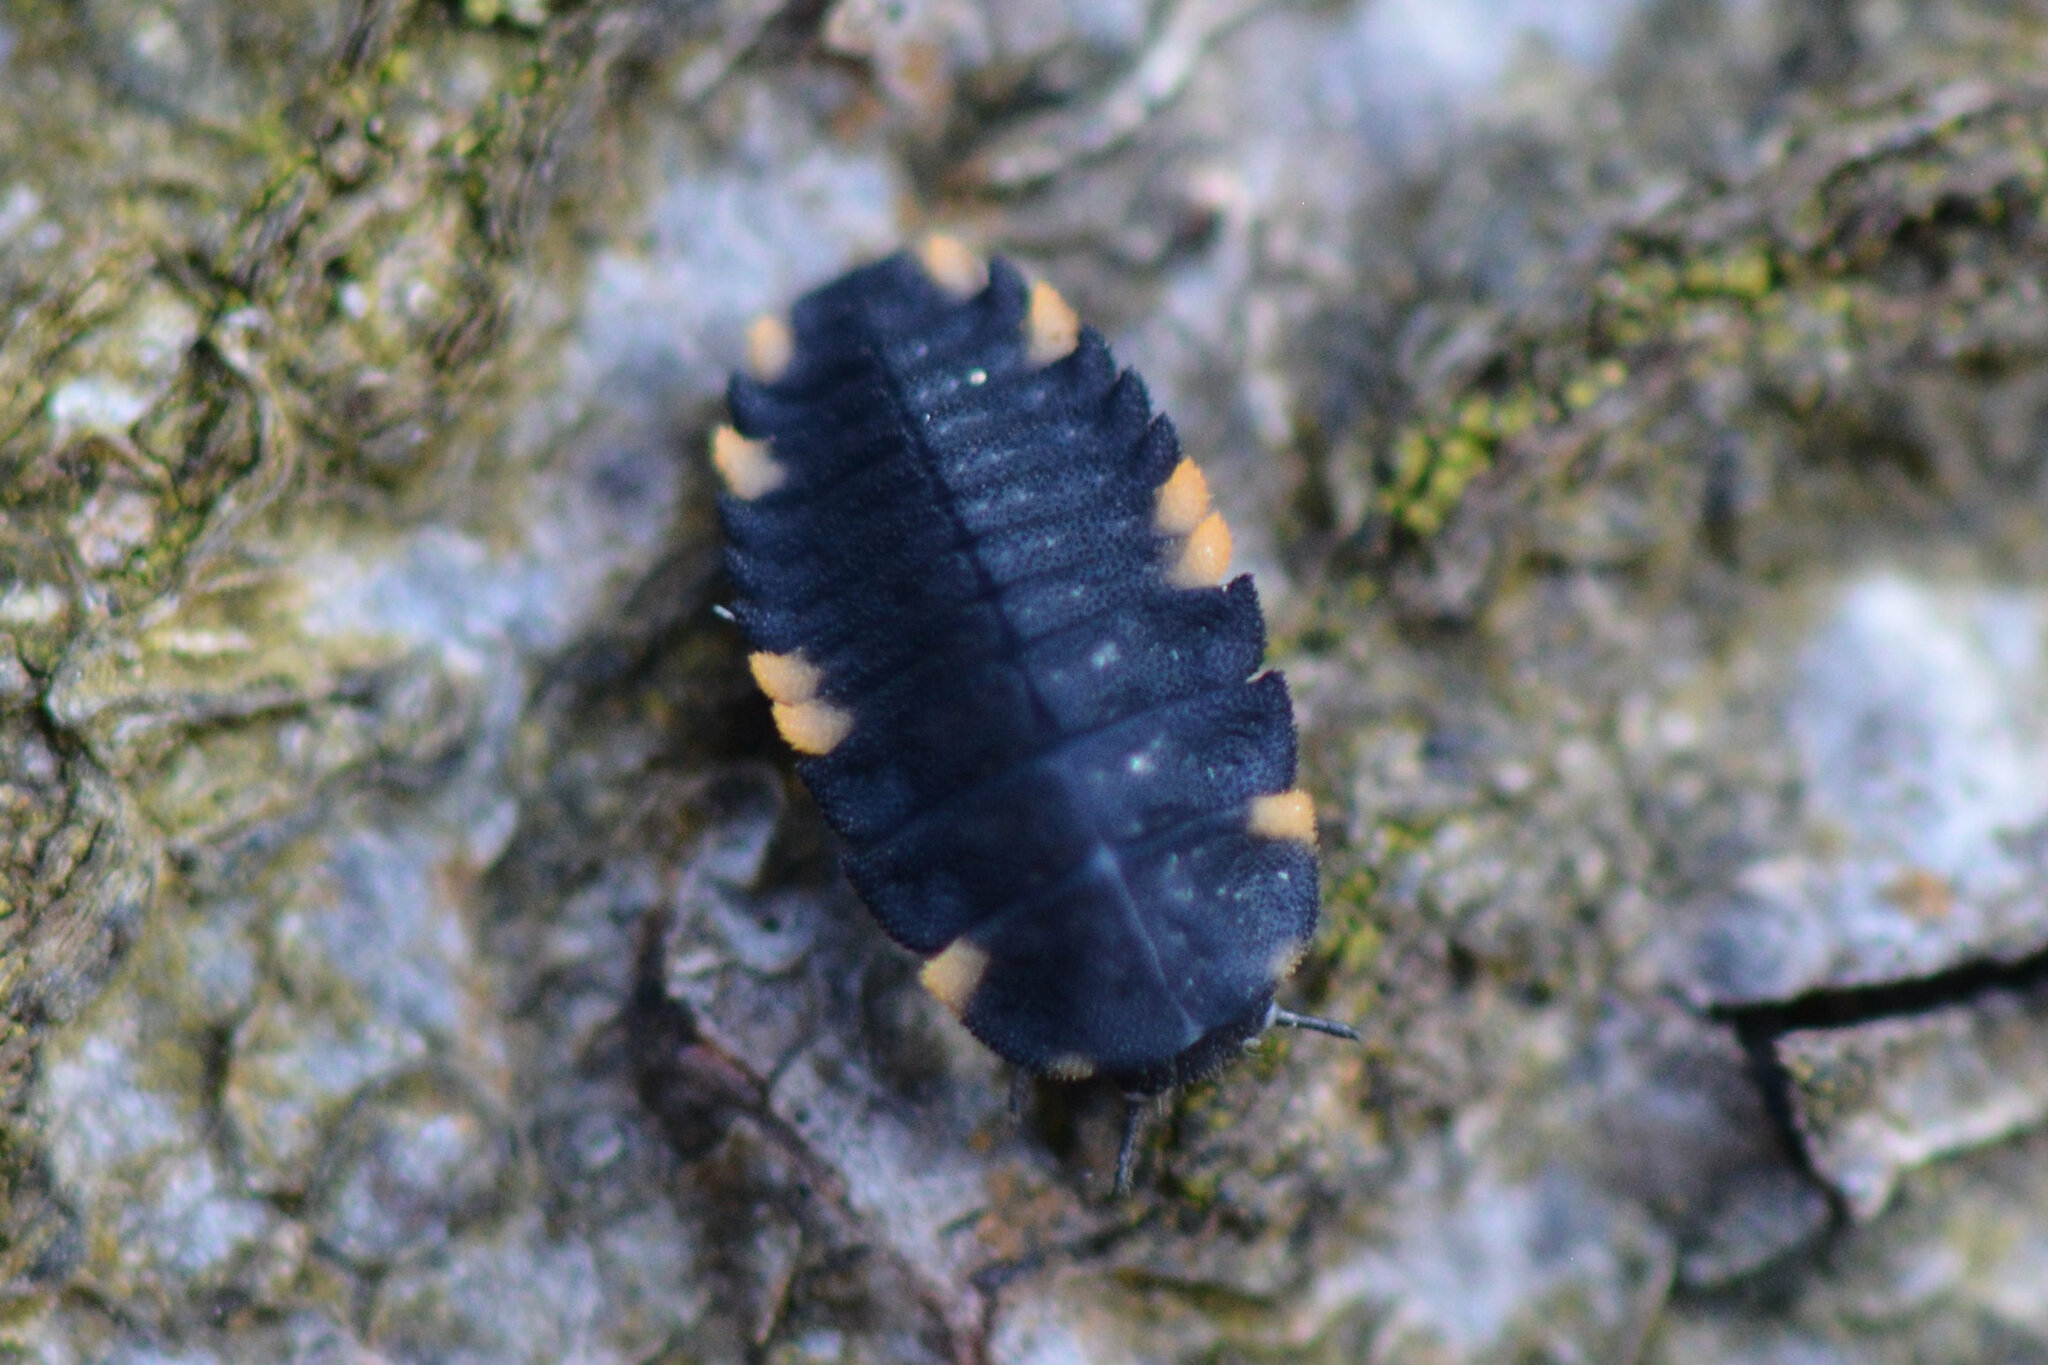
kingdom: Animalia
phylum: Arthropoda
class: Insecta
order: Coleoptera
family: Endomychidae
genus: Endomychus
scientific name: Endomychus coccineus
